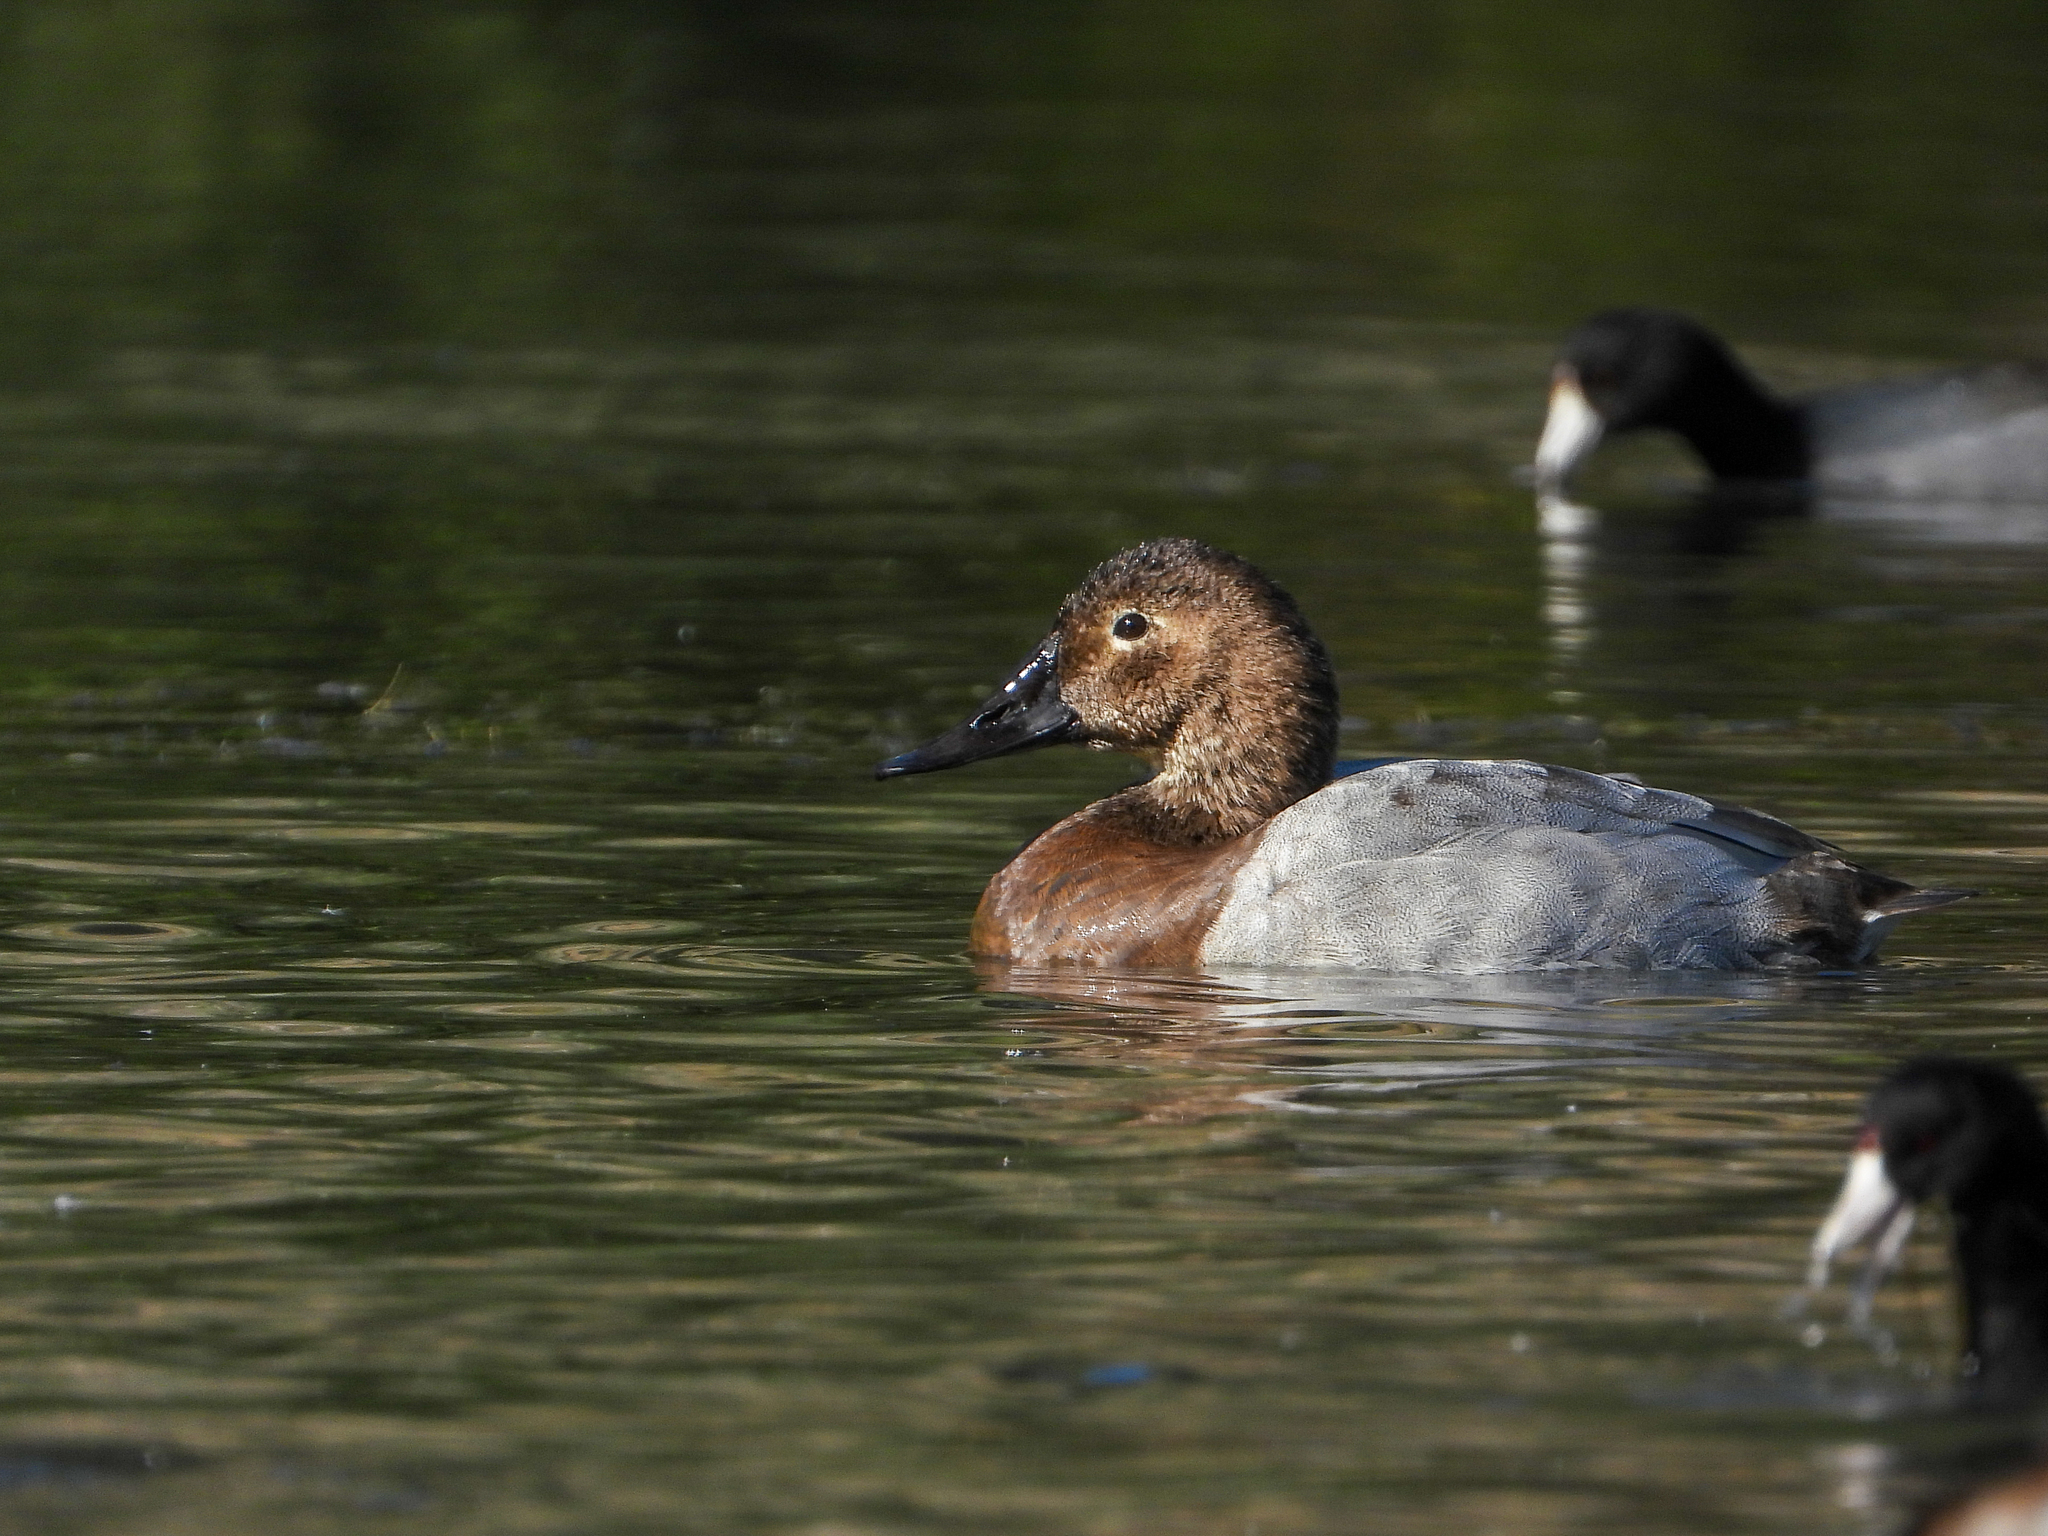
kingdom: Animalia
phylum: Chordata
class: Aves
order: Anseriformes
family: Anatidae
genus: Aythya
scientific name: Aythya valisineria
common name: Canvasback
